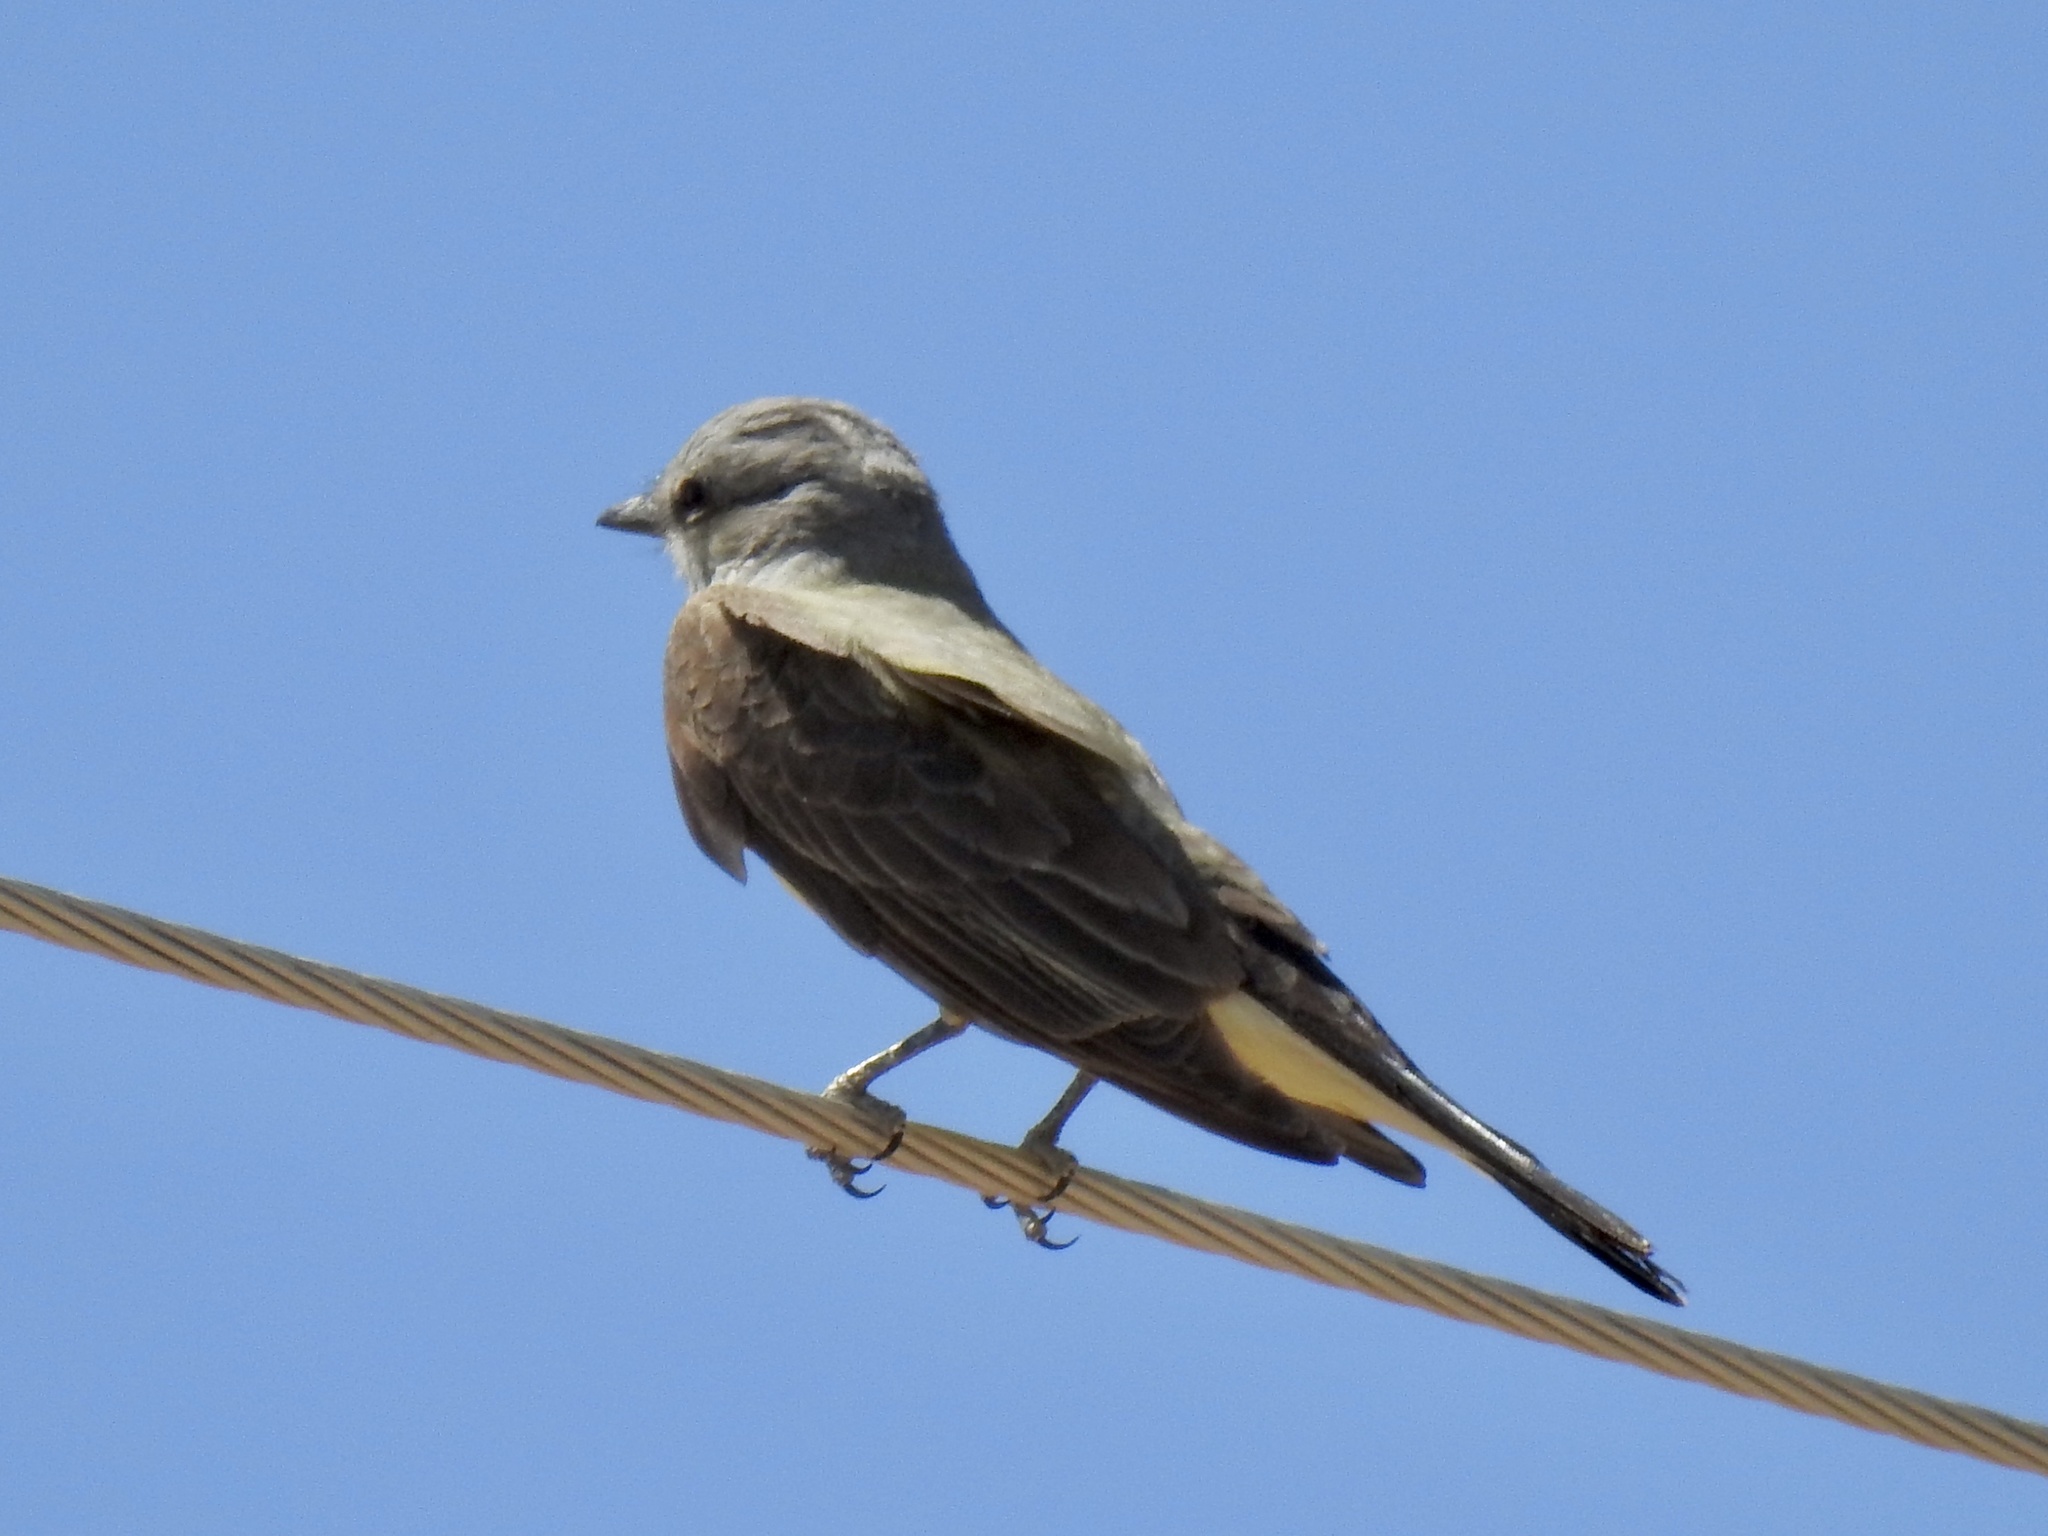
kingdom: Animalia
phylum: Chordata
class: Aves
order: Passeriformes
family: Tyrannidae
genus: Tyrannus
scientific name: Tyrannus verticalis
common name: Western kingbird
